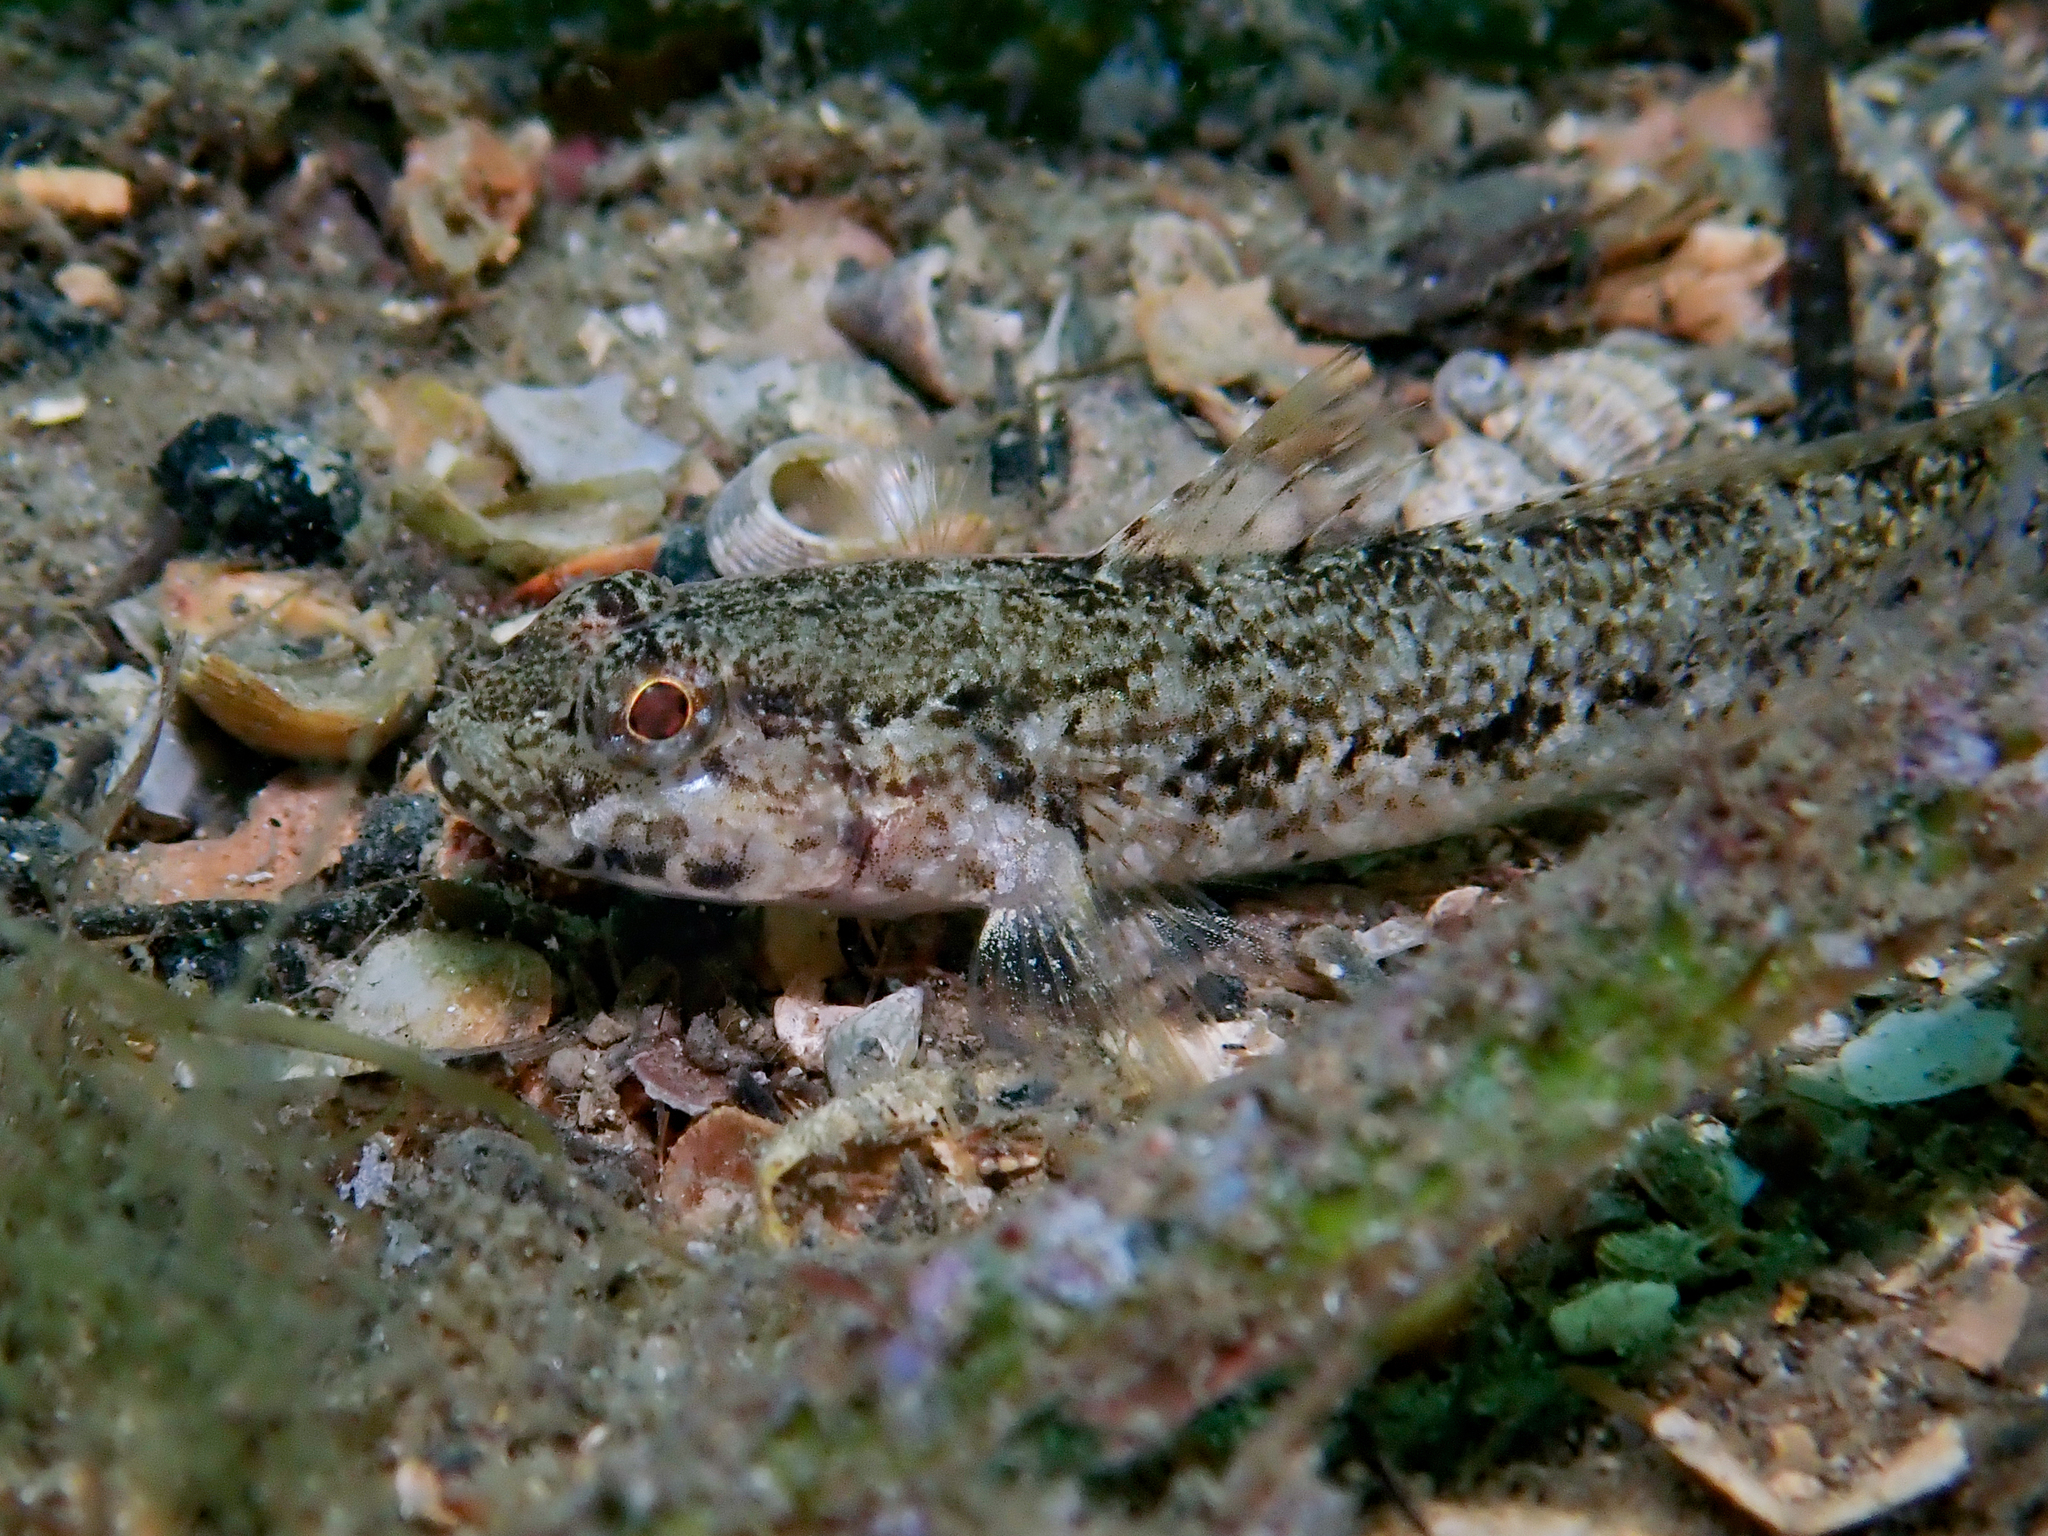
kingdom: Animalia
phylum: Chordata
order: Perciformes
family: Gobiidae
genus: Gobius
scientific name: Gobius couchi
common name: Couch's goby
